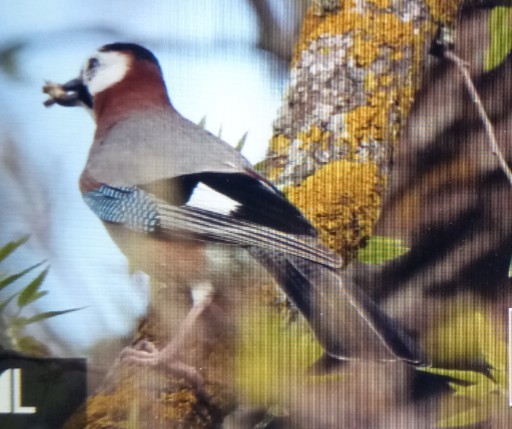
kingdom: Animalia
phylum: Chordata
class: Aves
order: Passeriformes
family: Corvidae
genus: Garrulus
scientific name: Garrulus glandarius
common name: Eurasian jay
